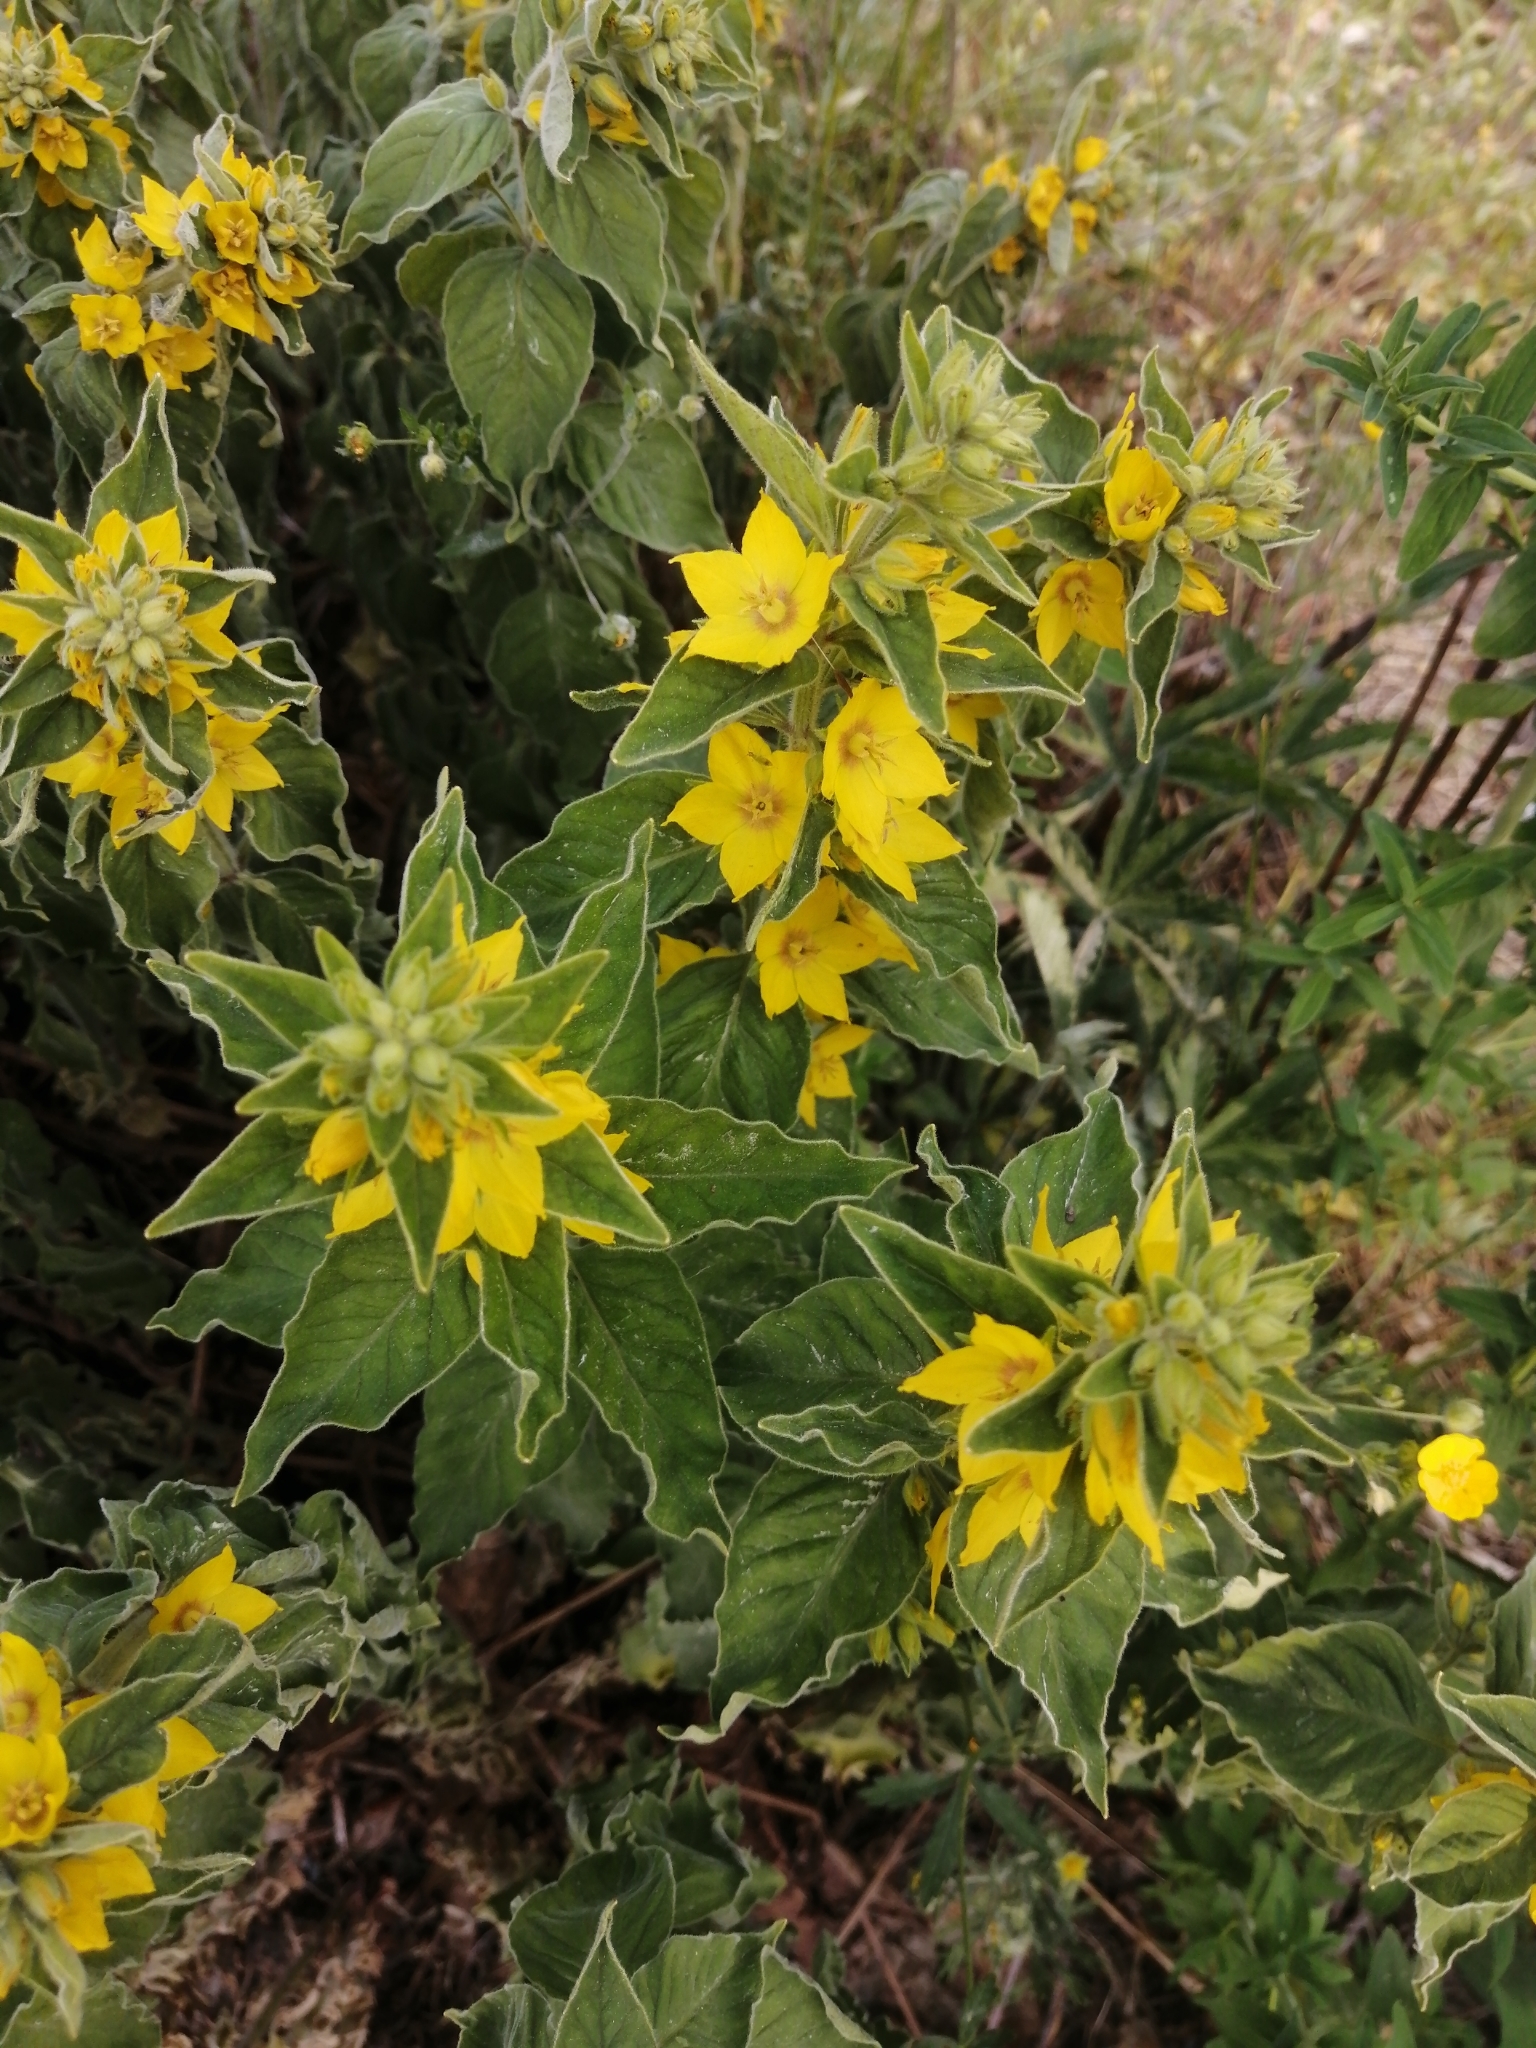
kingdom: Plantae
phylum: Tracheophyta
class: Magnoliopsida
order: Ericales
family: Primulaceae
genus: Lysimachia
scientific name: Lysimachia punctata
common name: Dotted loosestrife
